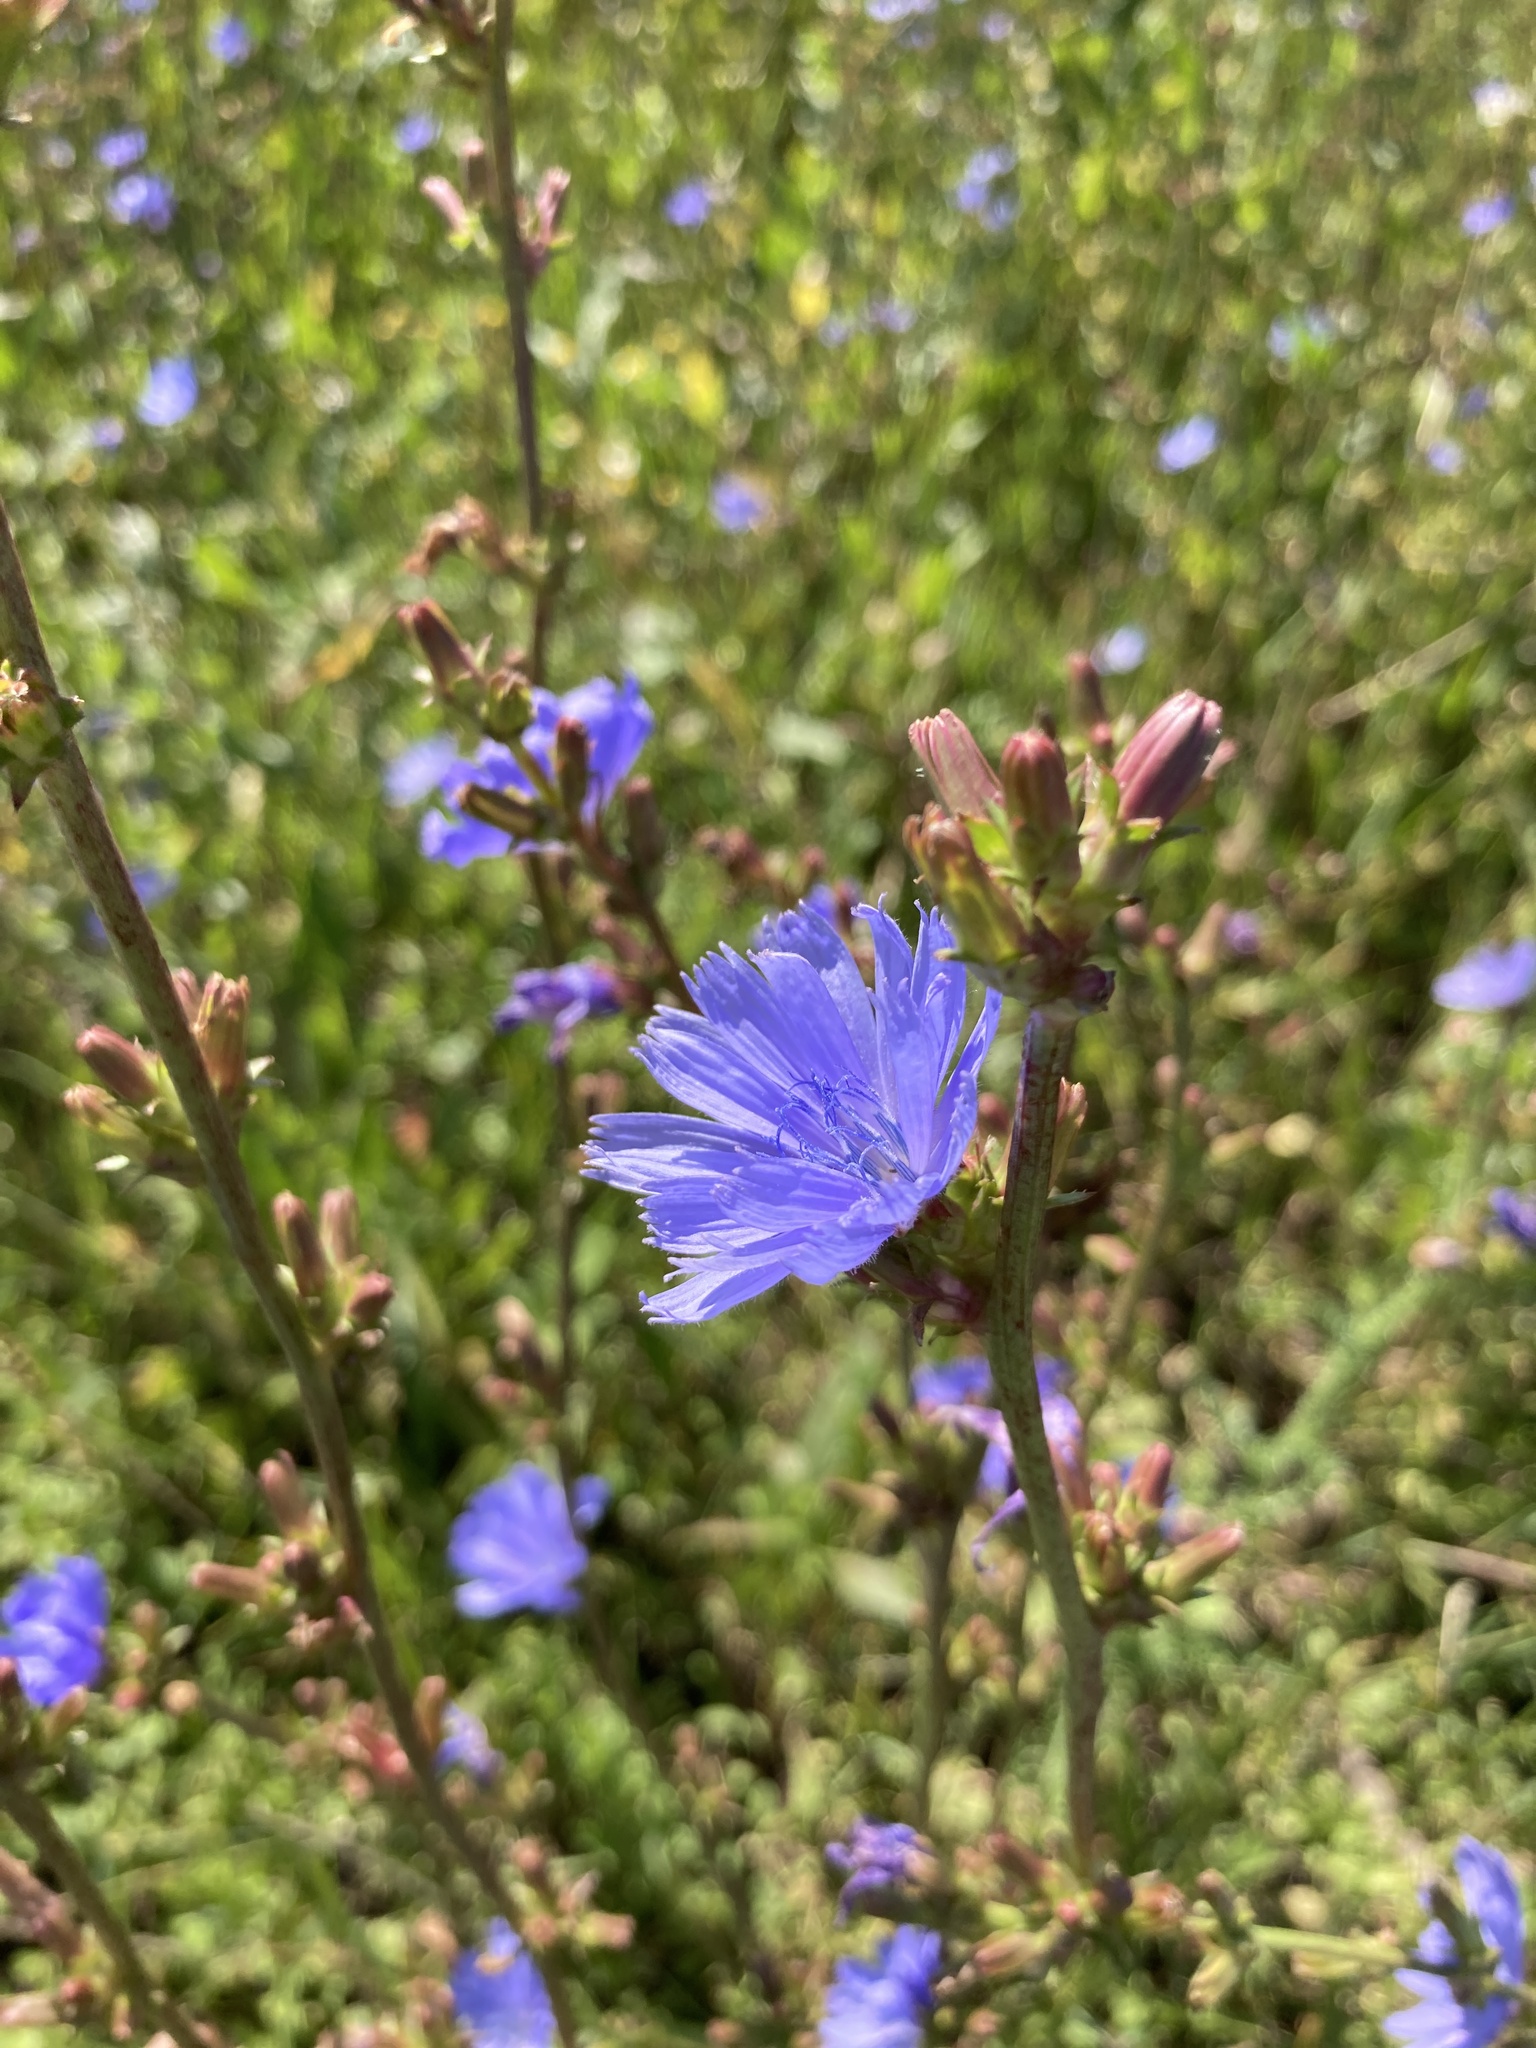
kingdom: Plantae
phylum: Tracheophyta
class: Magnoliopsida
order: Asterales
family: Asteraceae
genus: Cichorium
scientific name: Cichorium intybus
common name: Chicory
